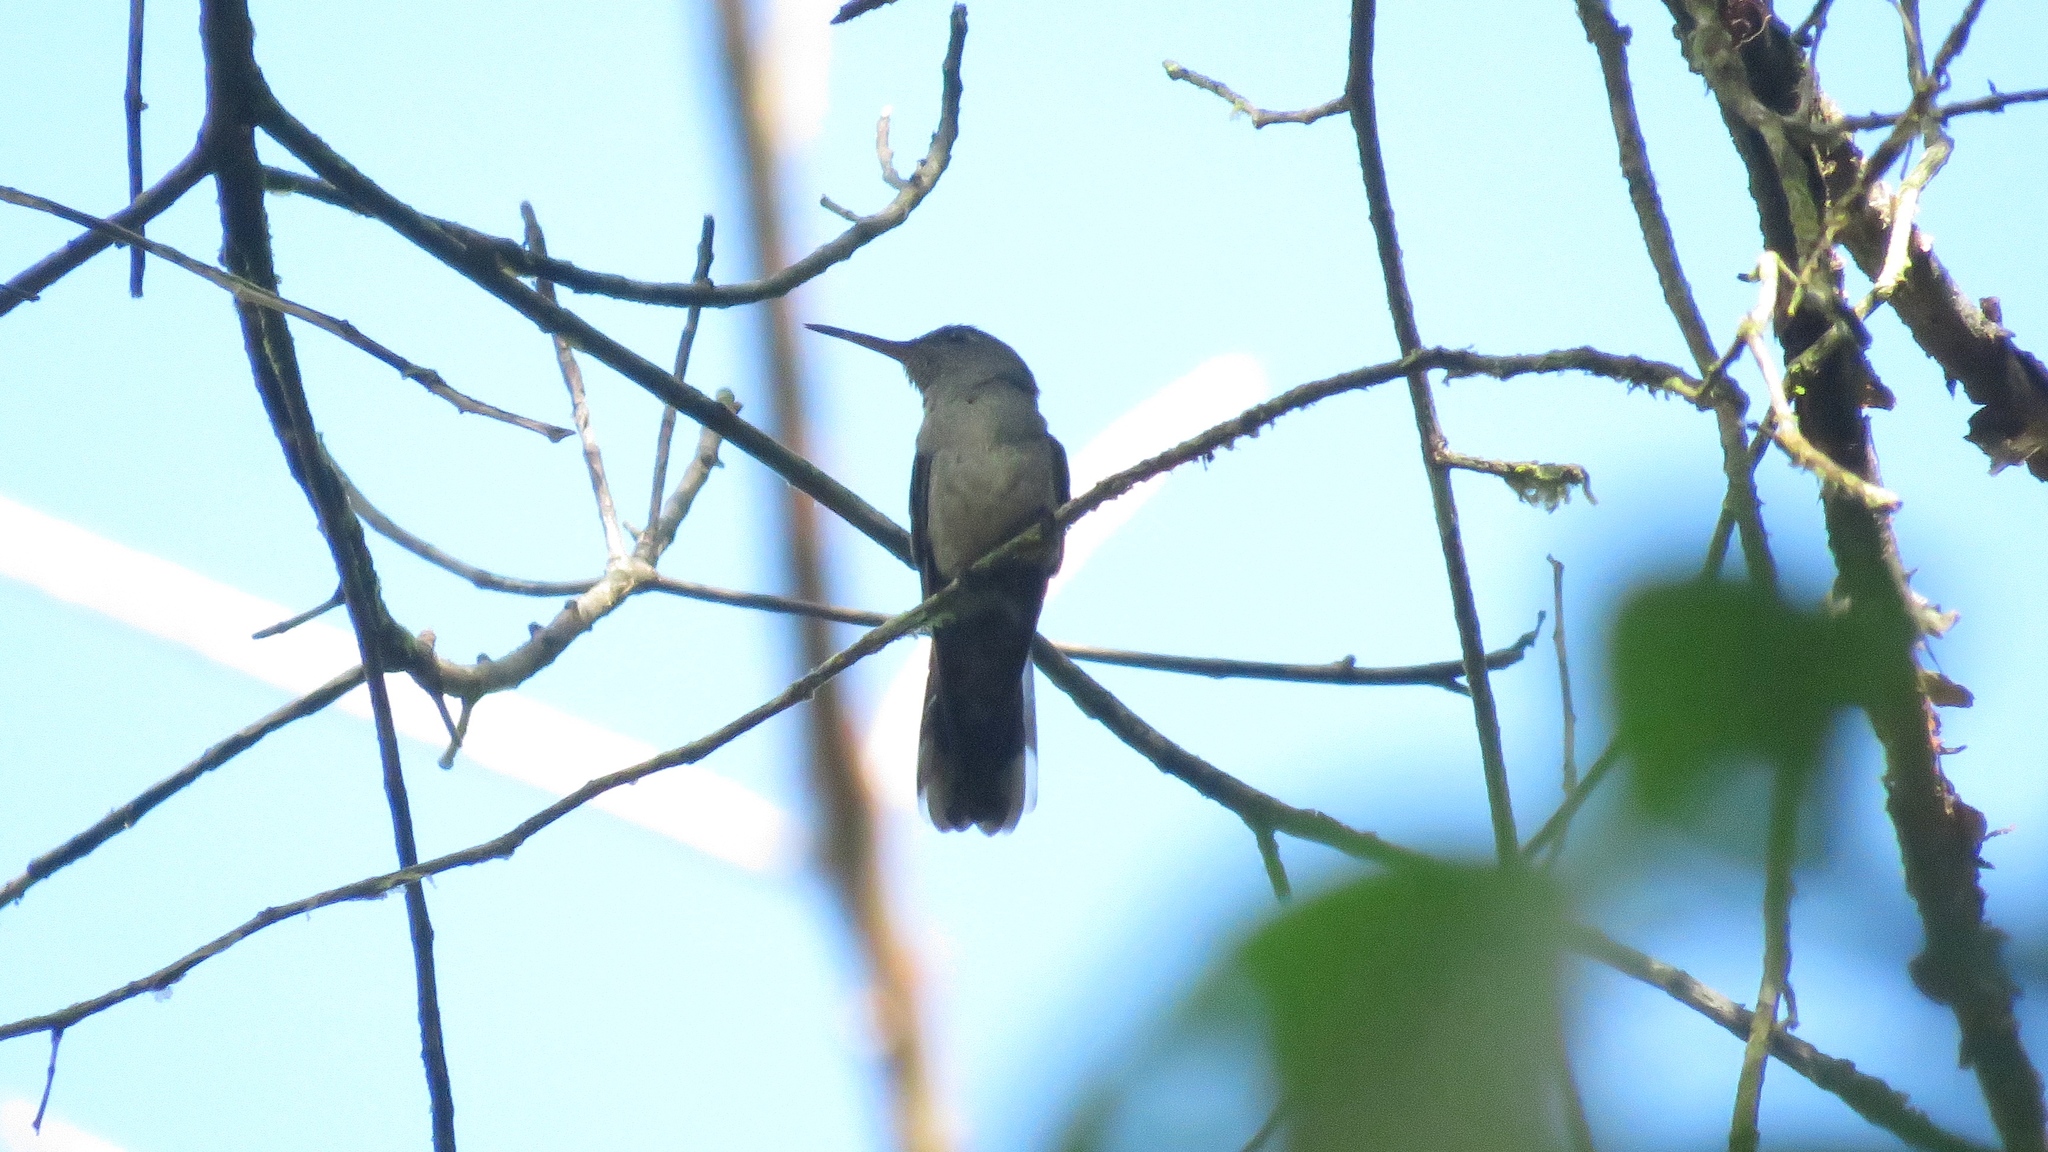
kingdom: Animalia
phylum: Chordata
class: Aves
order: Apodiformes
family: Trochilidae
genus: Phaeochroa
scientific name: Phaeochroa cuvierii
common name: Scaly-breasted hummingbird
